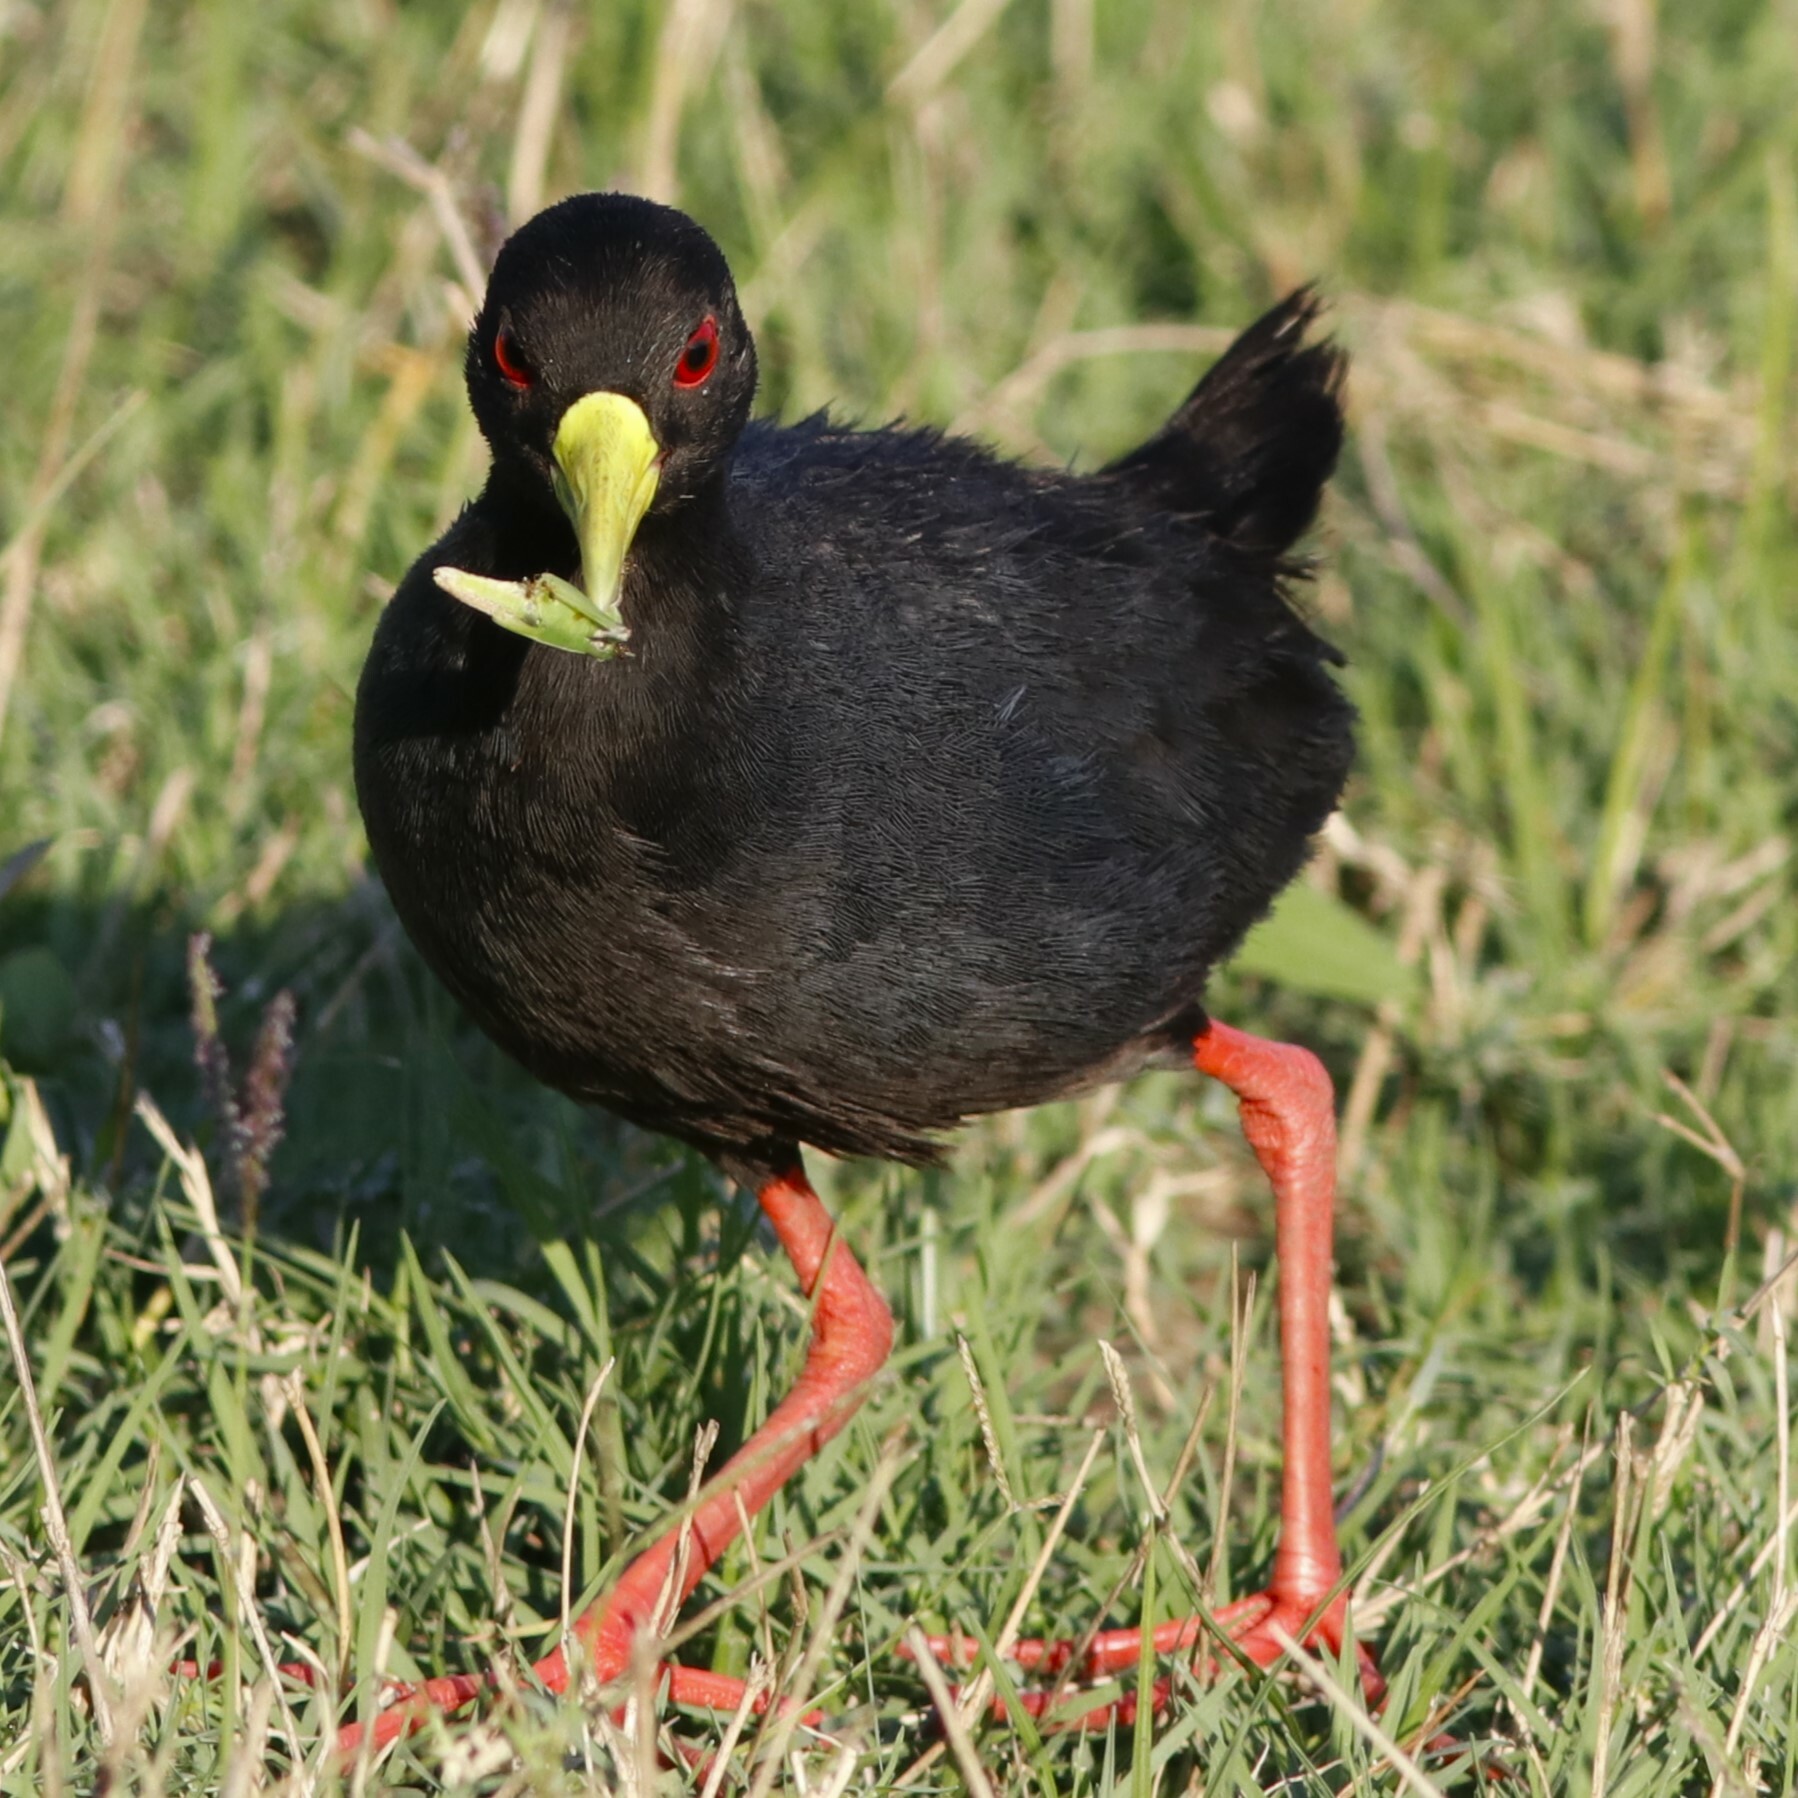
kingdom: Animalia
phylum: Chordata
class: Aves
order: Gruiformes
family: Rallidae
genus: Amaurornis
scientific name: Amaurornis flavirostra
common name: Black crake
